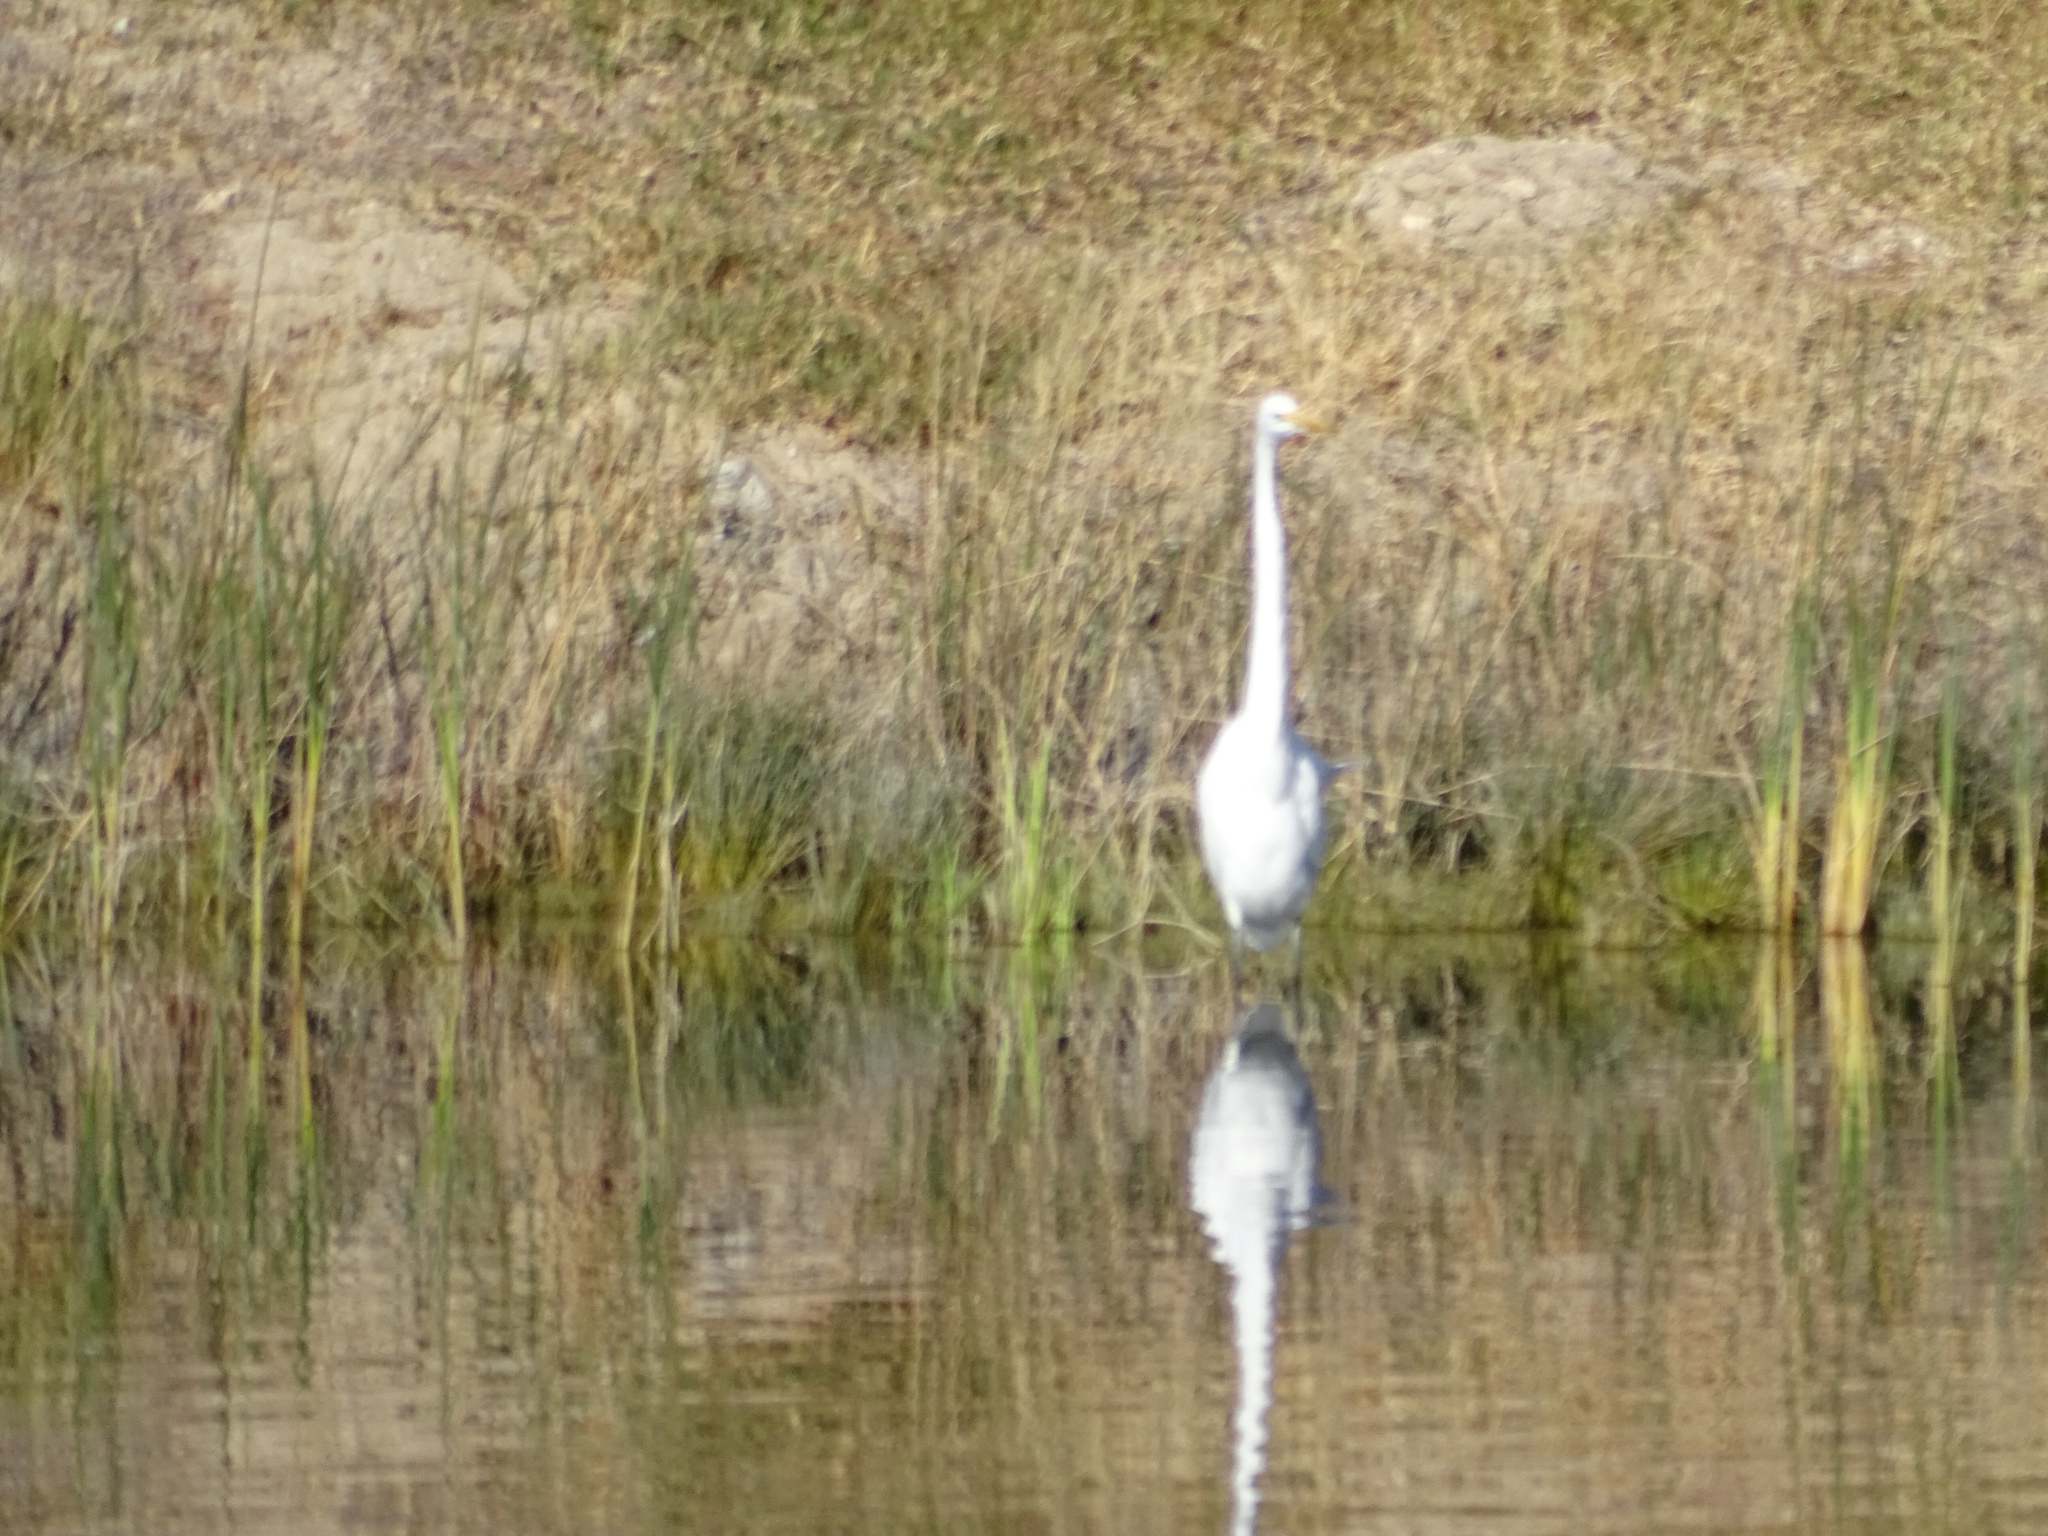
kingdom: Animalia
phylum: Chordata
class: Aves
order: Pelecaniformes
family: Ardeidae
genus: Ardea
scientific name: Ardea alba
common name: Great egret
